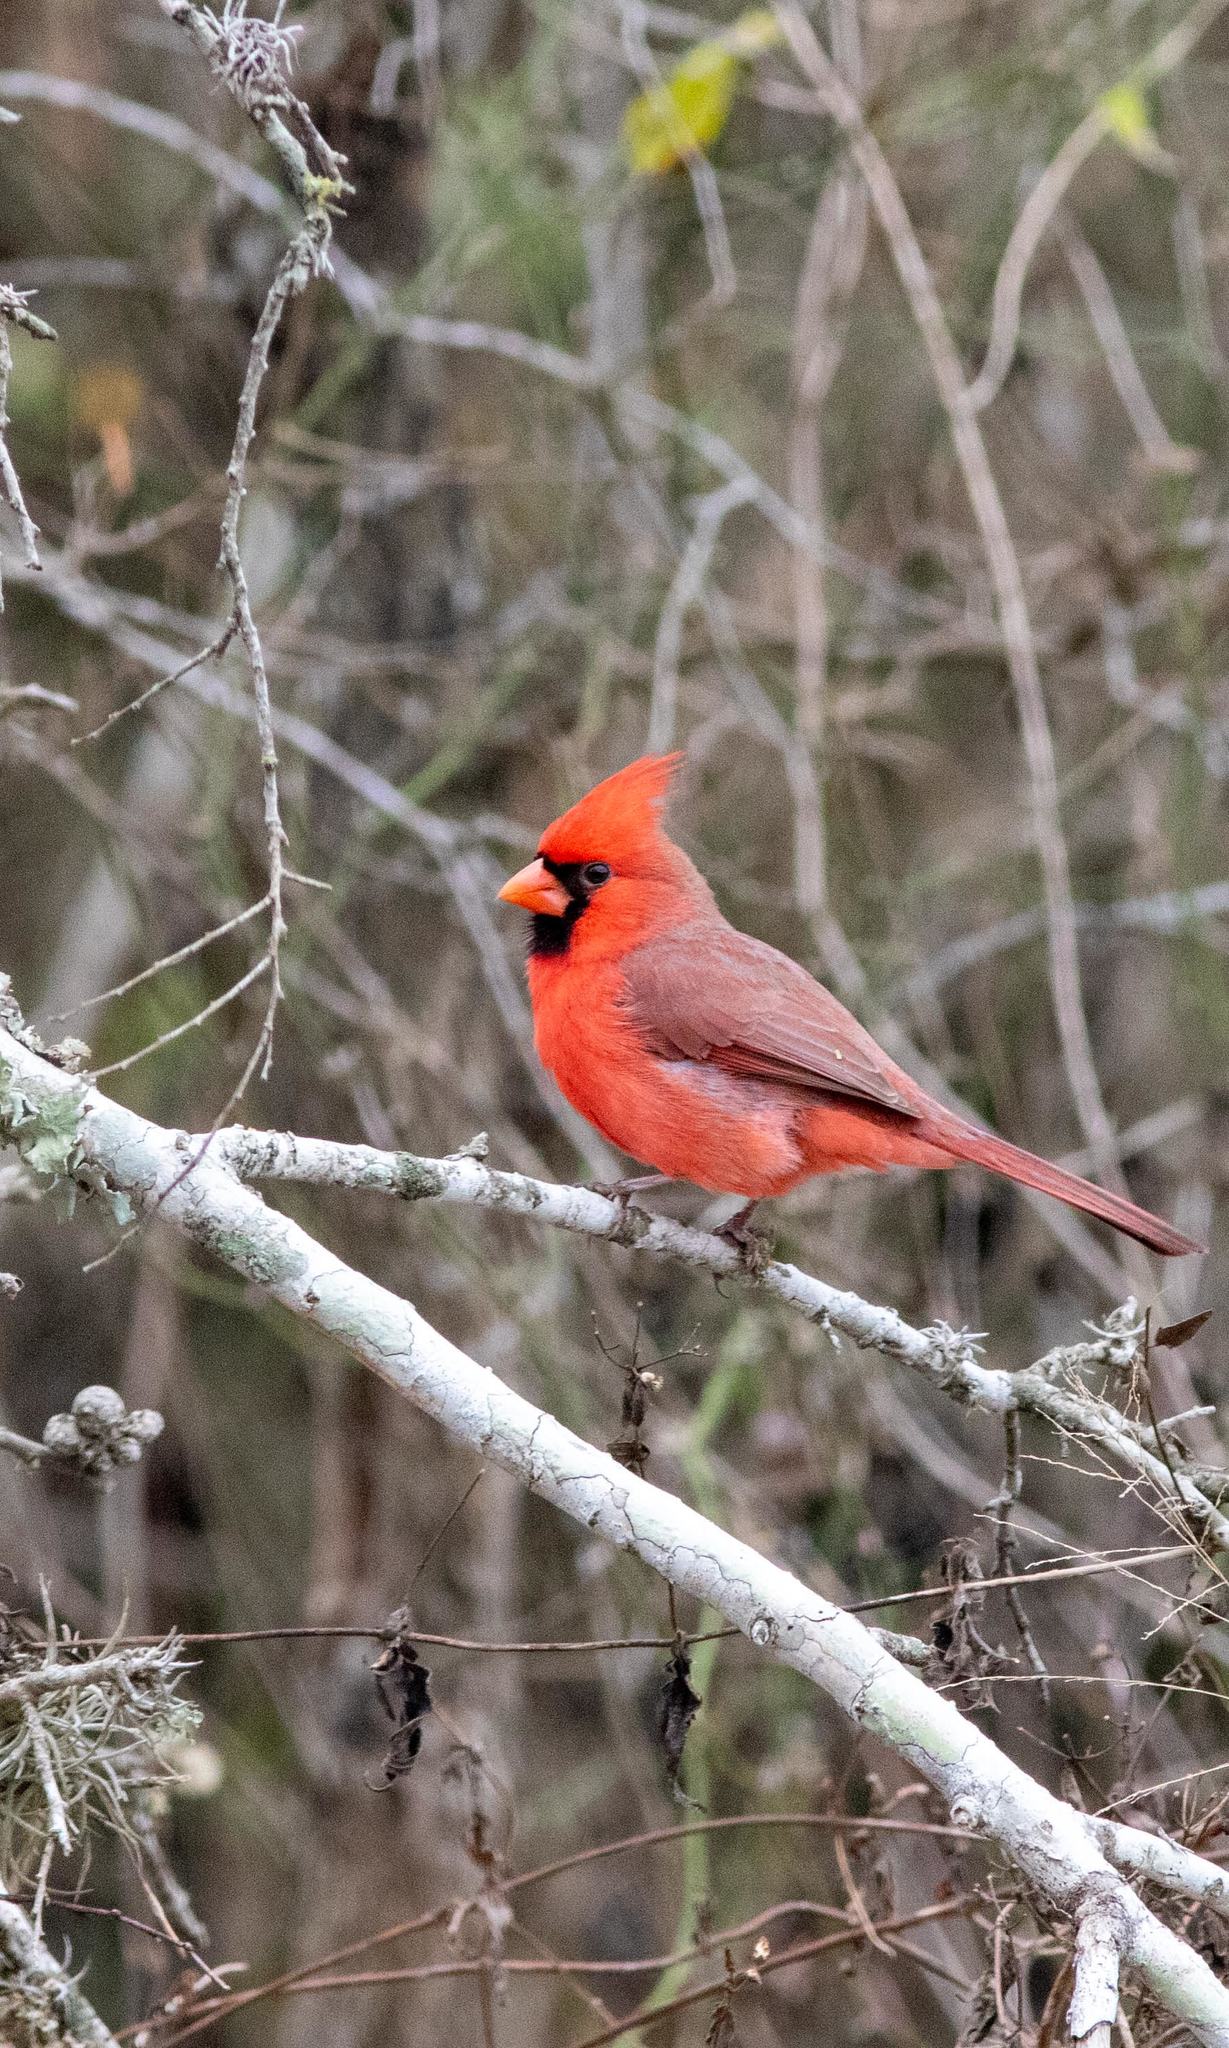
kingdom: Animalia
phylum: Chordata
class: Aves
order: Passeriformes
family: Cardinalidae
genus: Cardinalis
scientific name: Cardinalis cardinalis
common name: Northern cardinal
